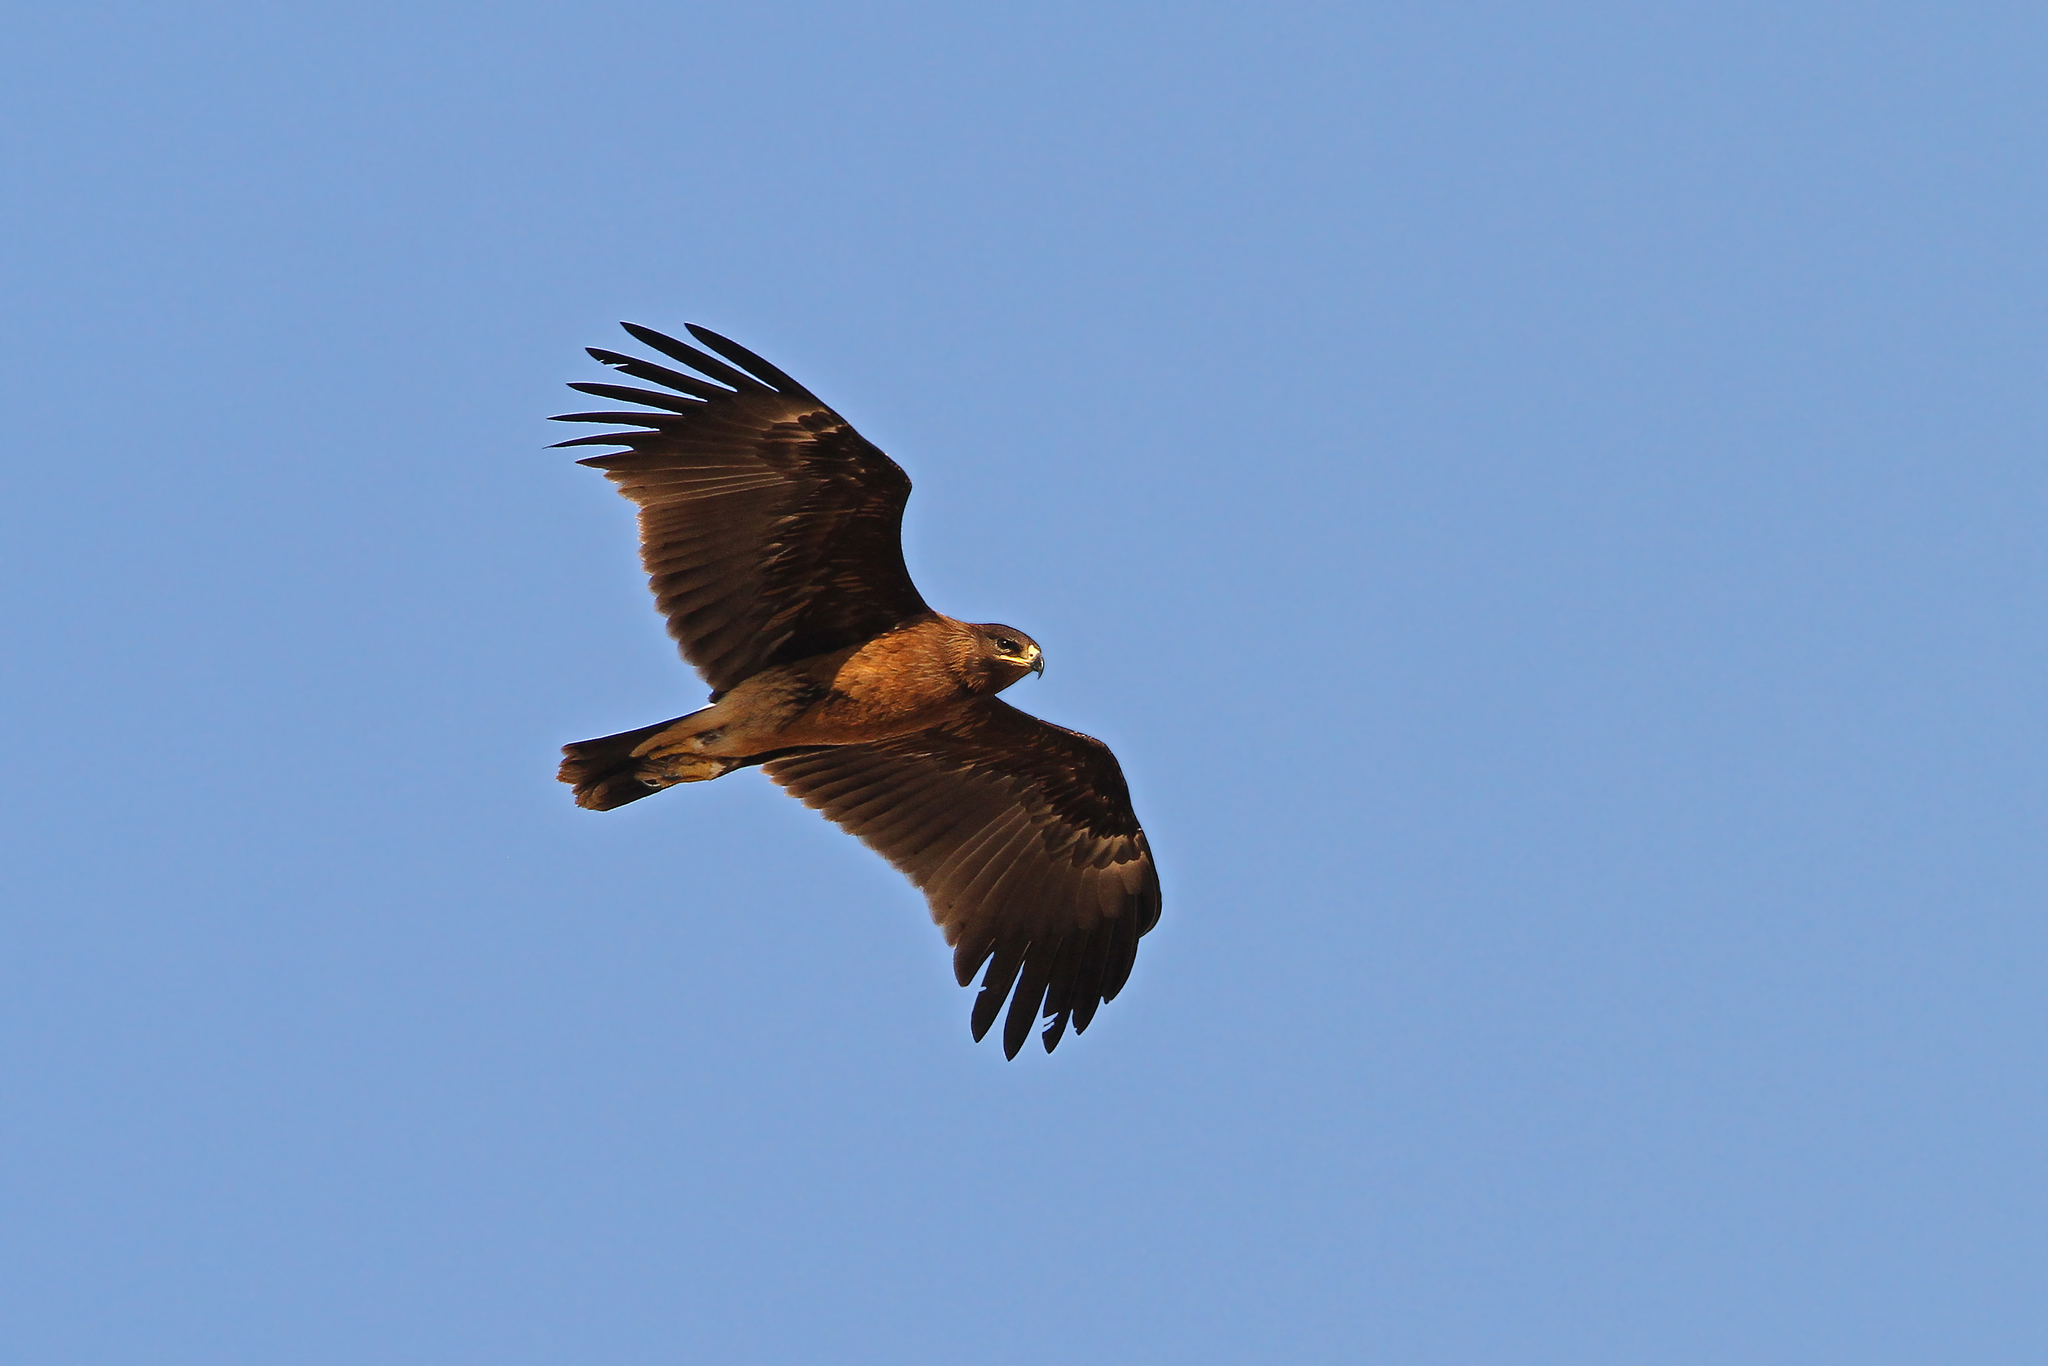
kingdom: Animalia
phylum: Chordata
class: Aves
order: Accipitriformes
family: Accipitridae
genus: Aquila
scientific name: Aquila clanga
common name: Greater spotted eagle
